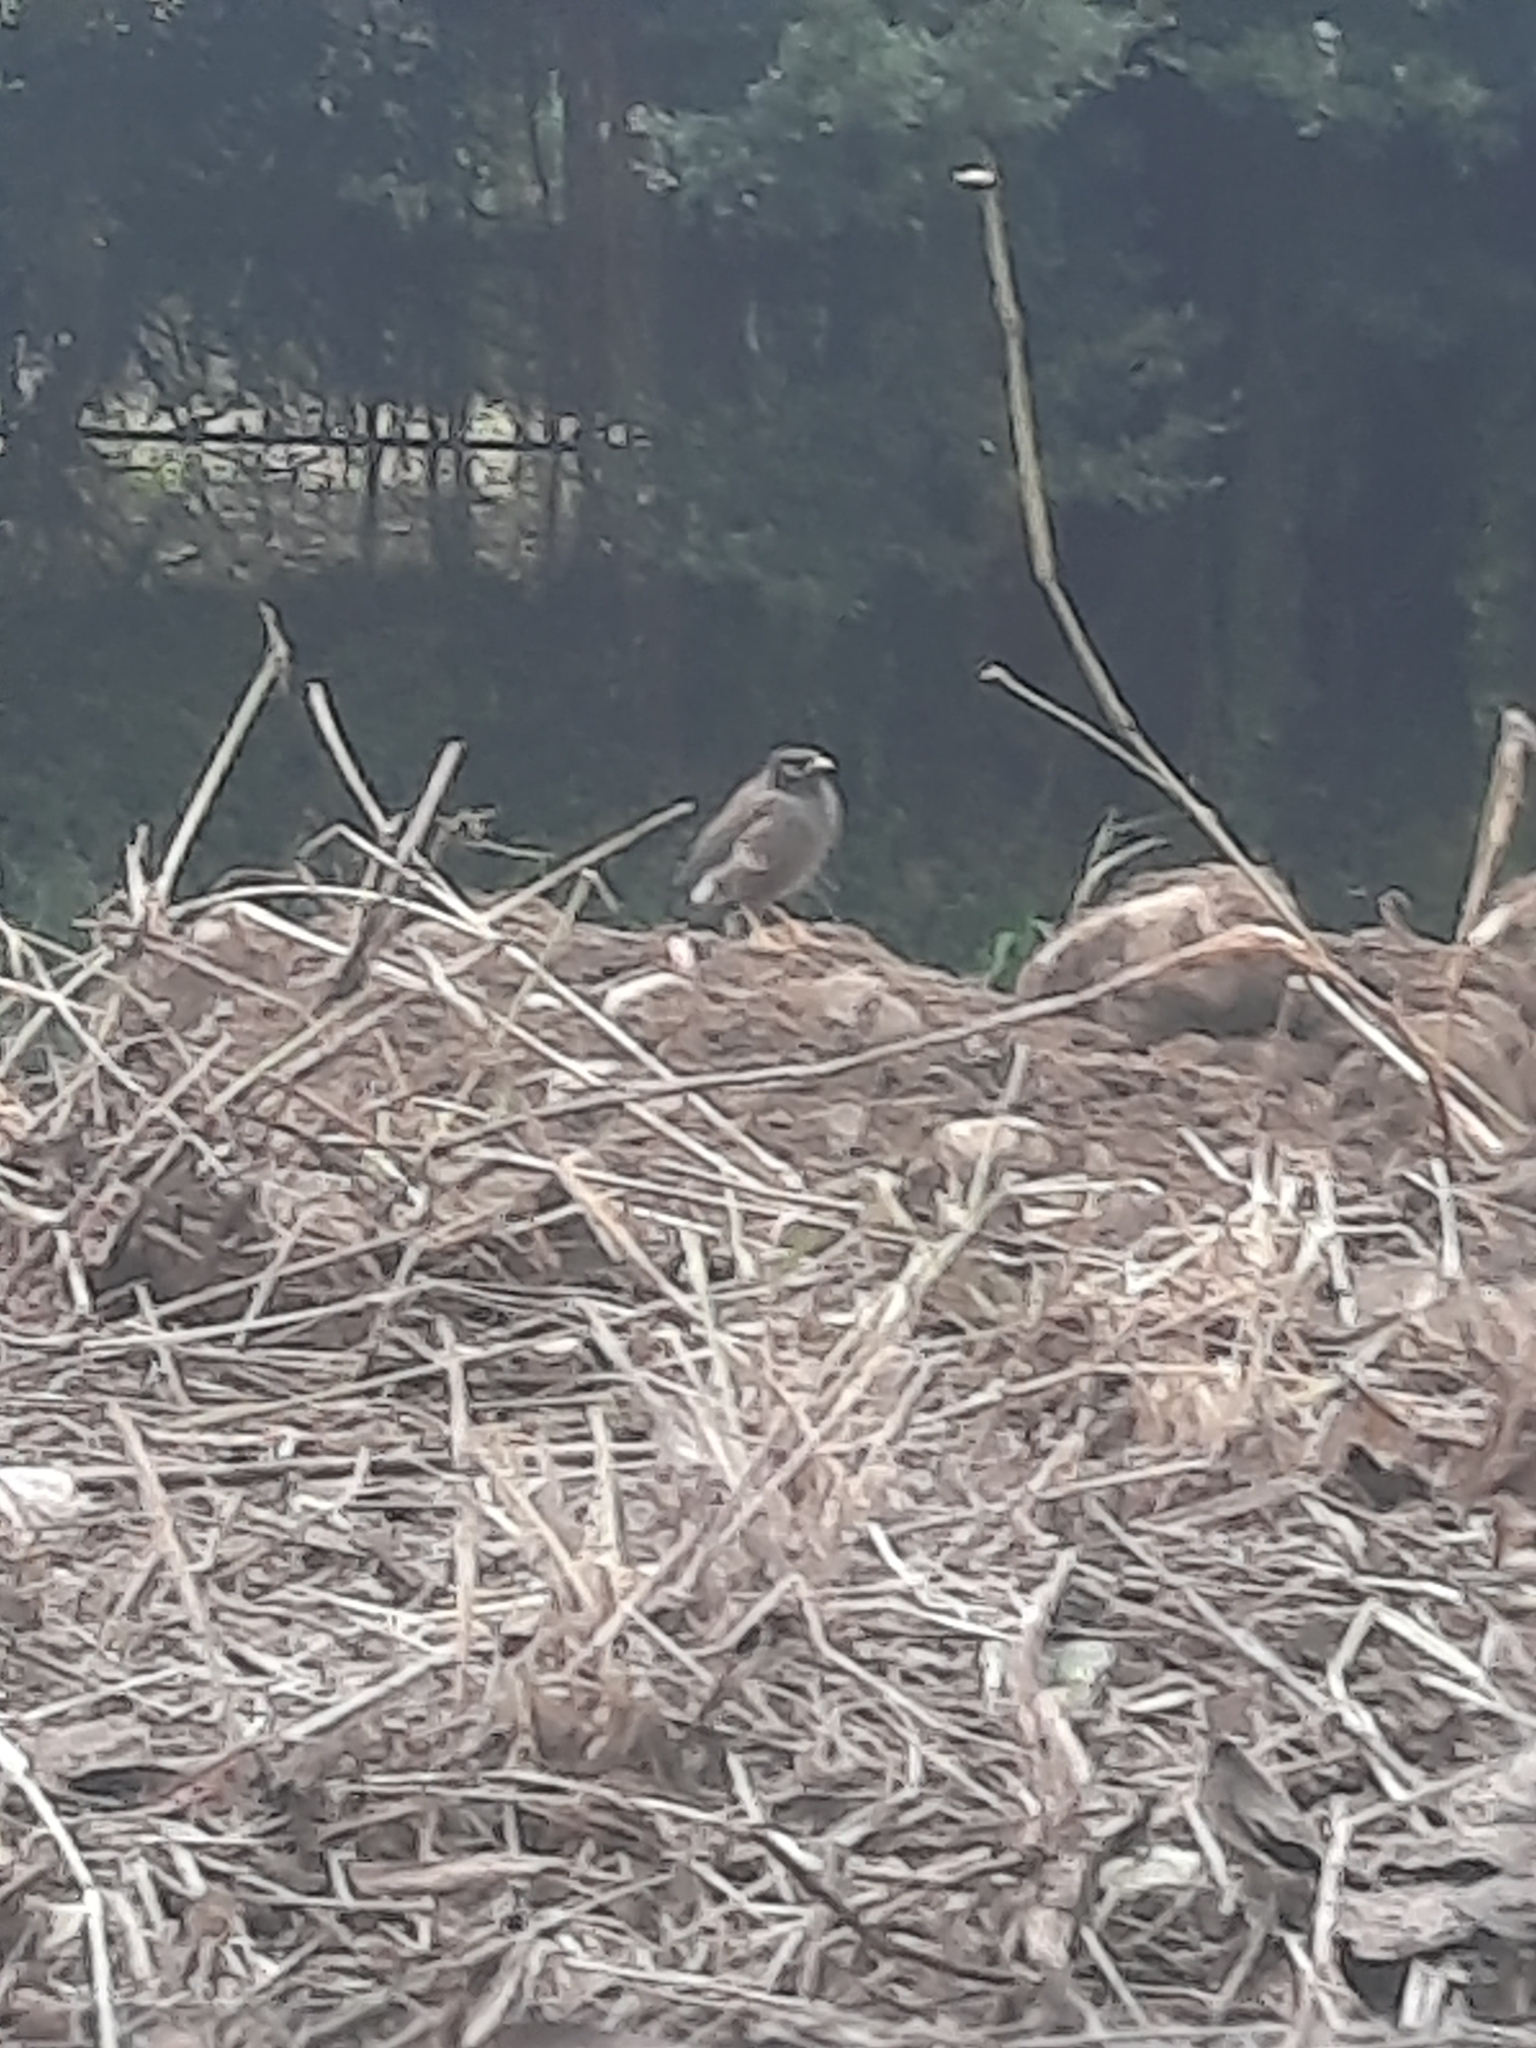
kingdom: Animalia
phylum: Chordata
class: Aves
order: Passeriformes
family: Sturnidae
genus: Acridotheres
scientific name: Acridotheres tristis
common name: Common myna
